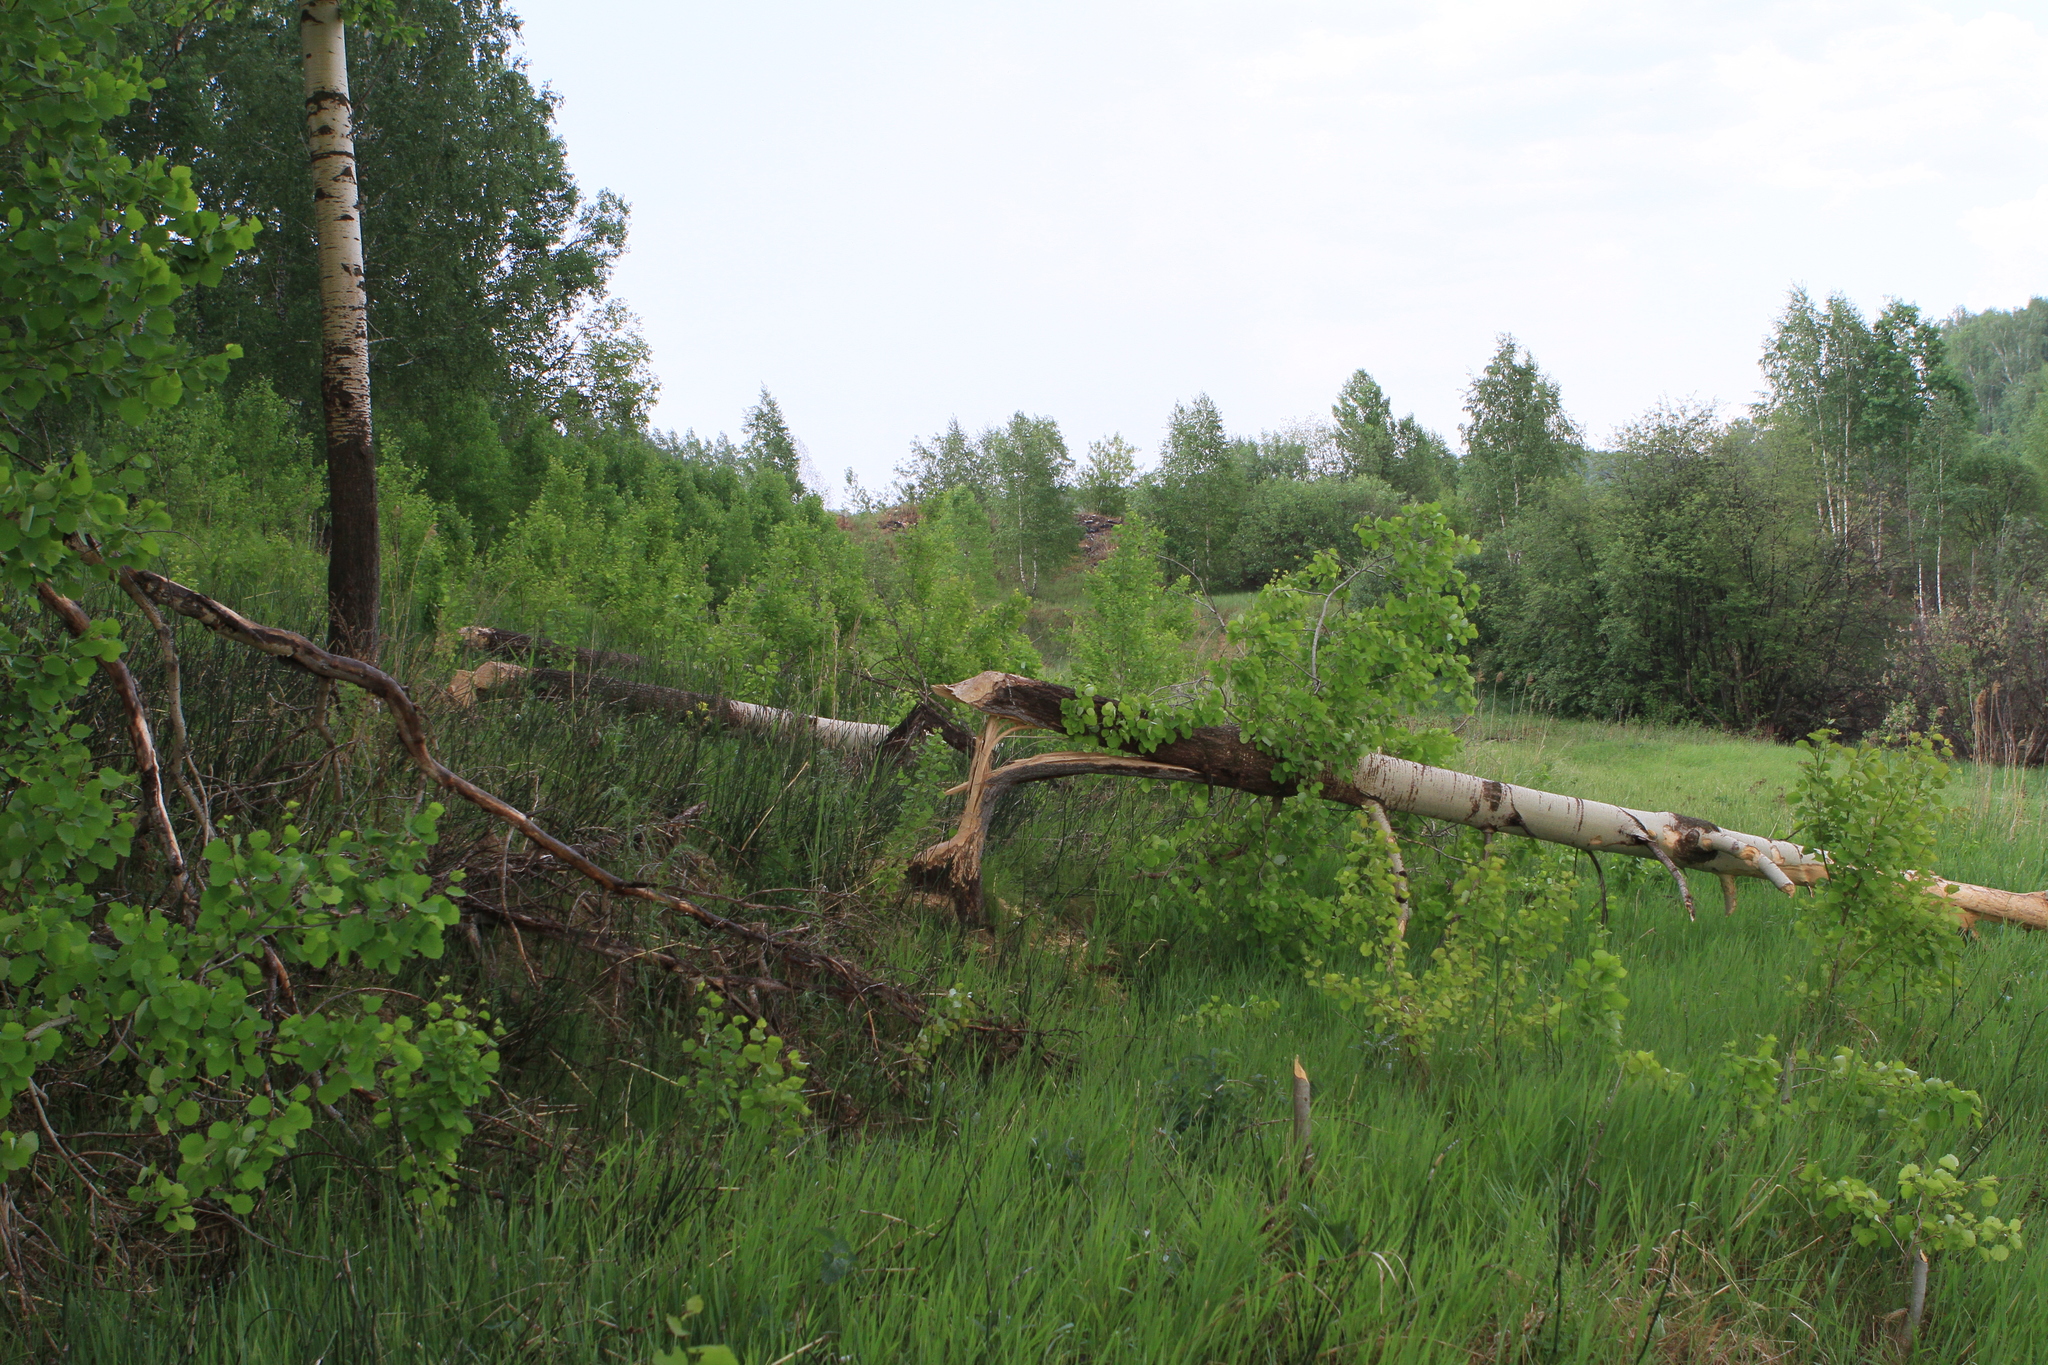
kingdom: Animalia
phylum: Chordata
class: Mammalia
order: Rodentia
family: Castoridae
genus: Castor
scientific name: Castor fiber
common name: Eurasian beaver
